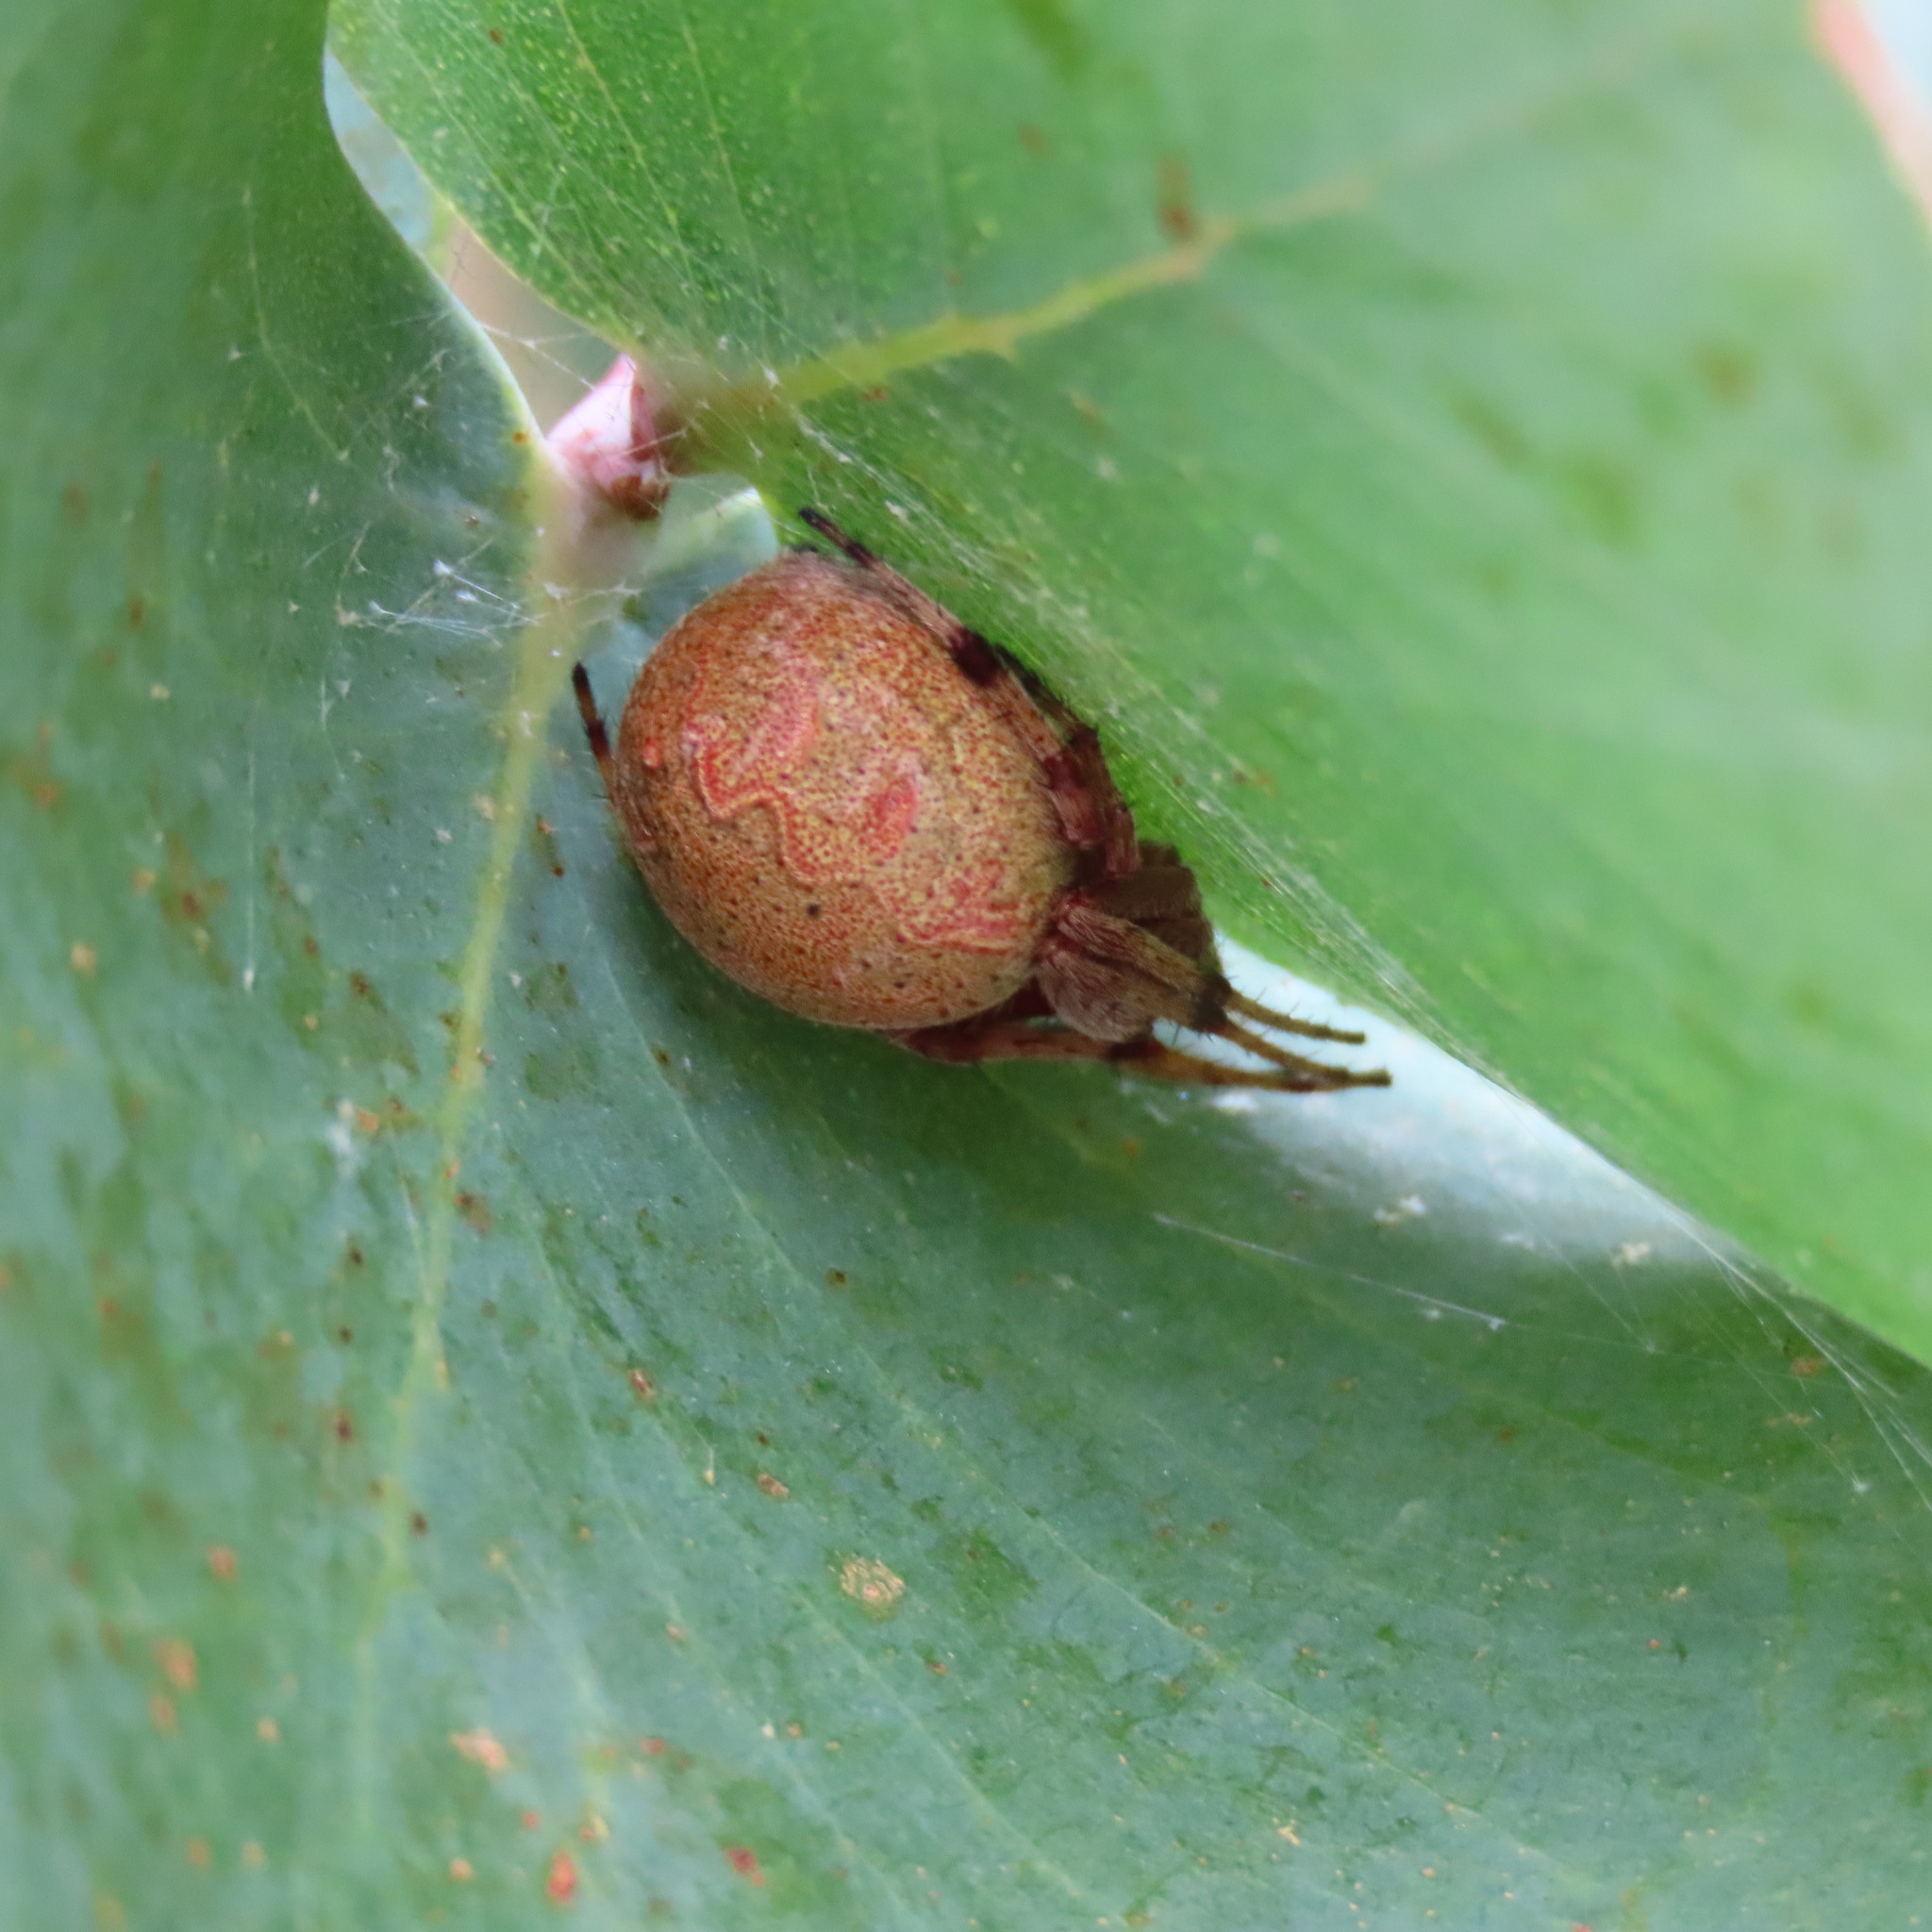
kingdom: Animalia
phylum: Arthropoda
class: Arachnida
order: Araneae
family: Araneidae
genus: Salsa
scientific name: Salsa fuliginata
